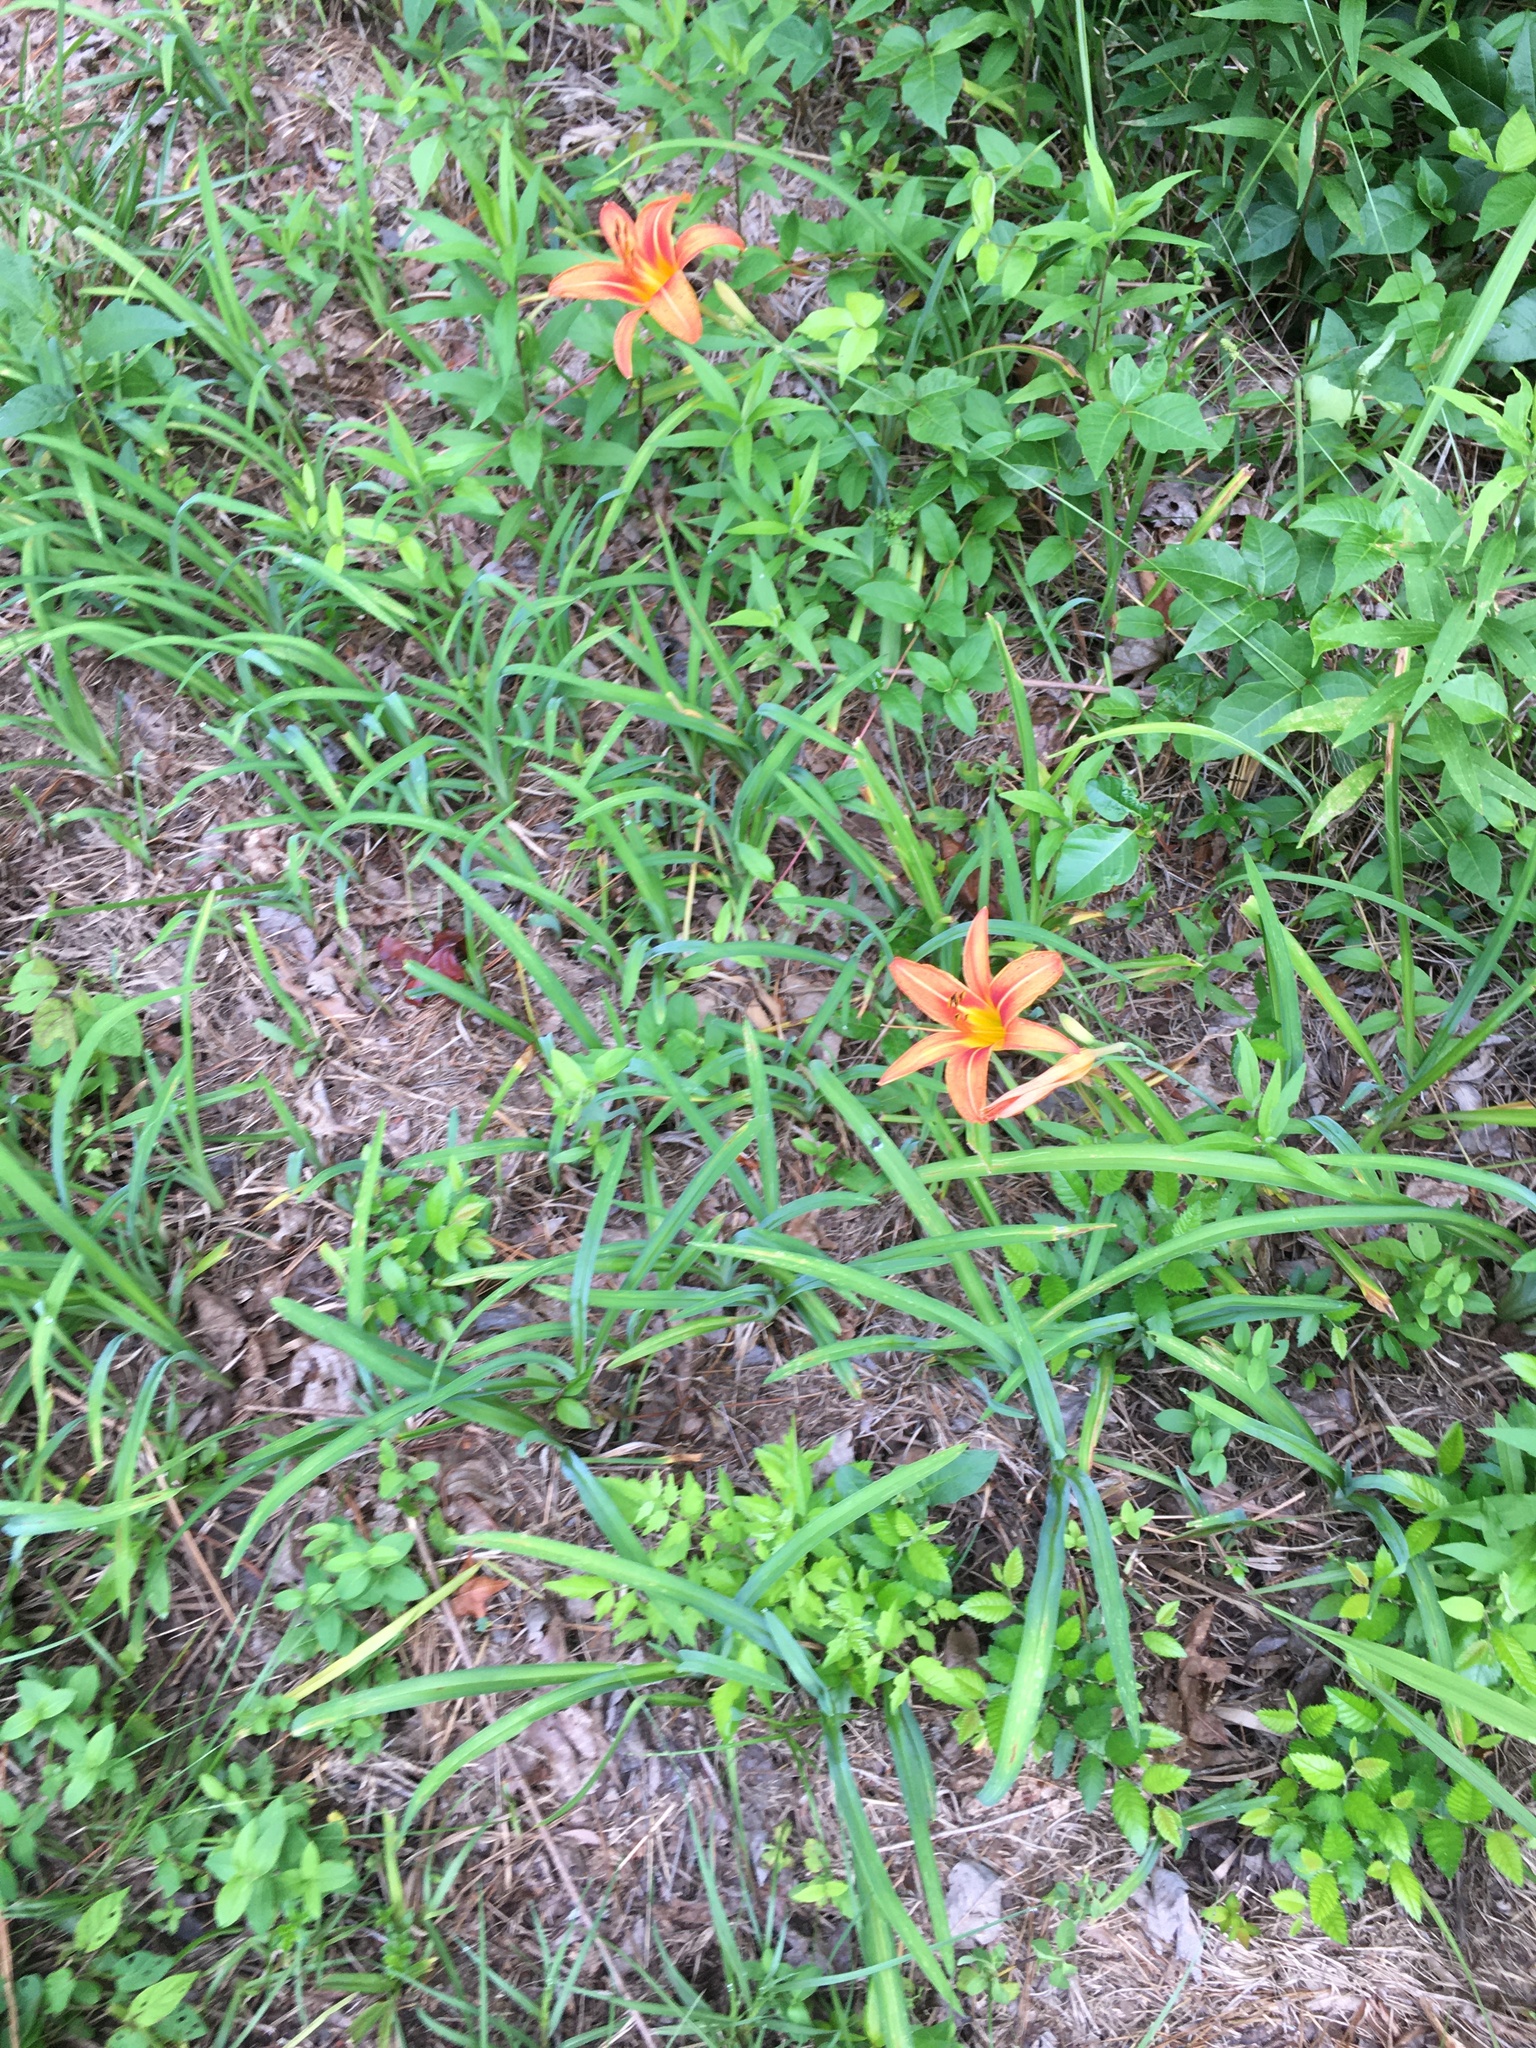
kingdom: Plantae
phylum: Tracheophyta
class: Liliopsida
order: Asparagales
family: Asphodelaceae
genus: Hemerocallis
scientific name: Hemerocallis fulva
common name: Orange day-lily
